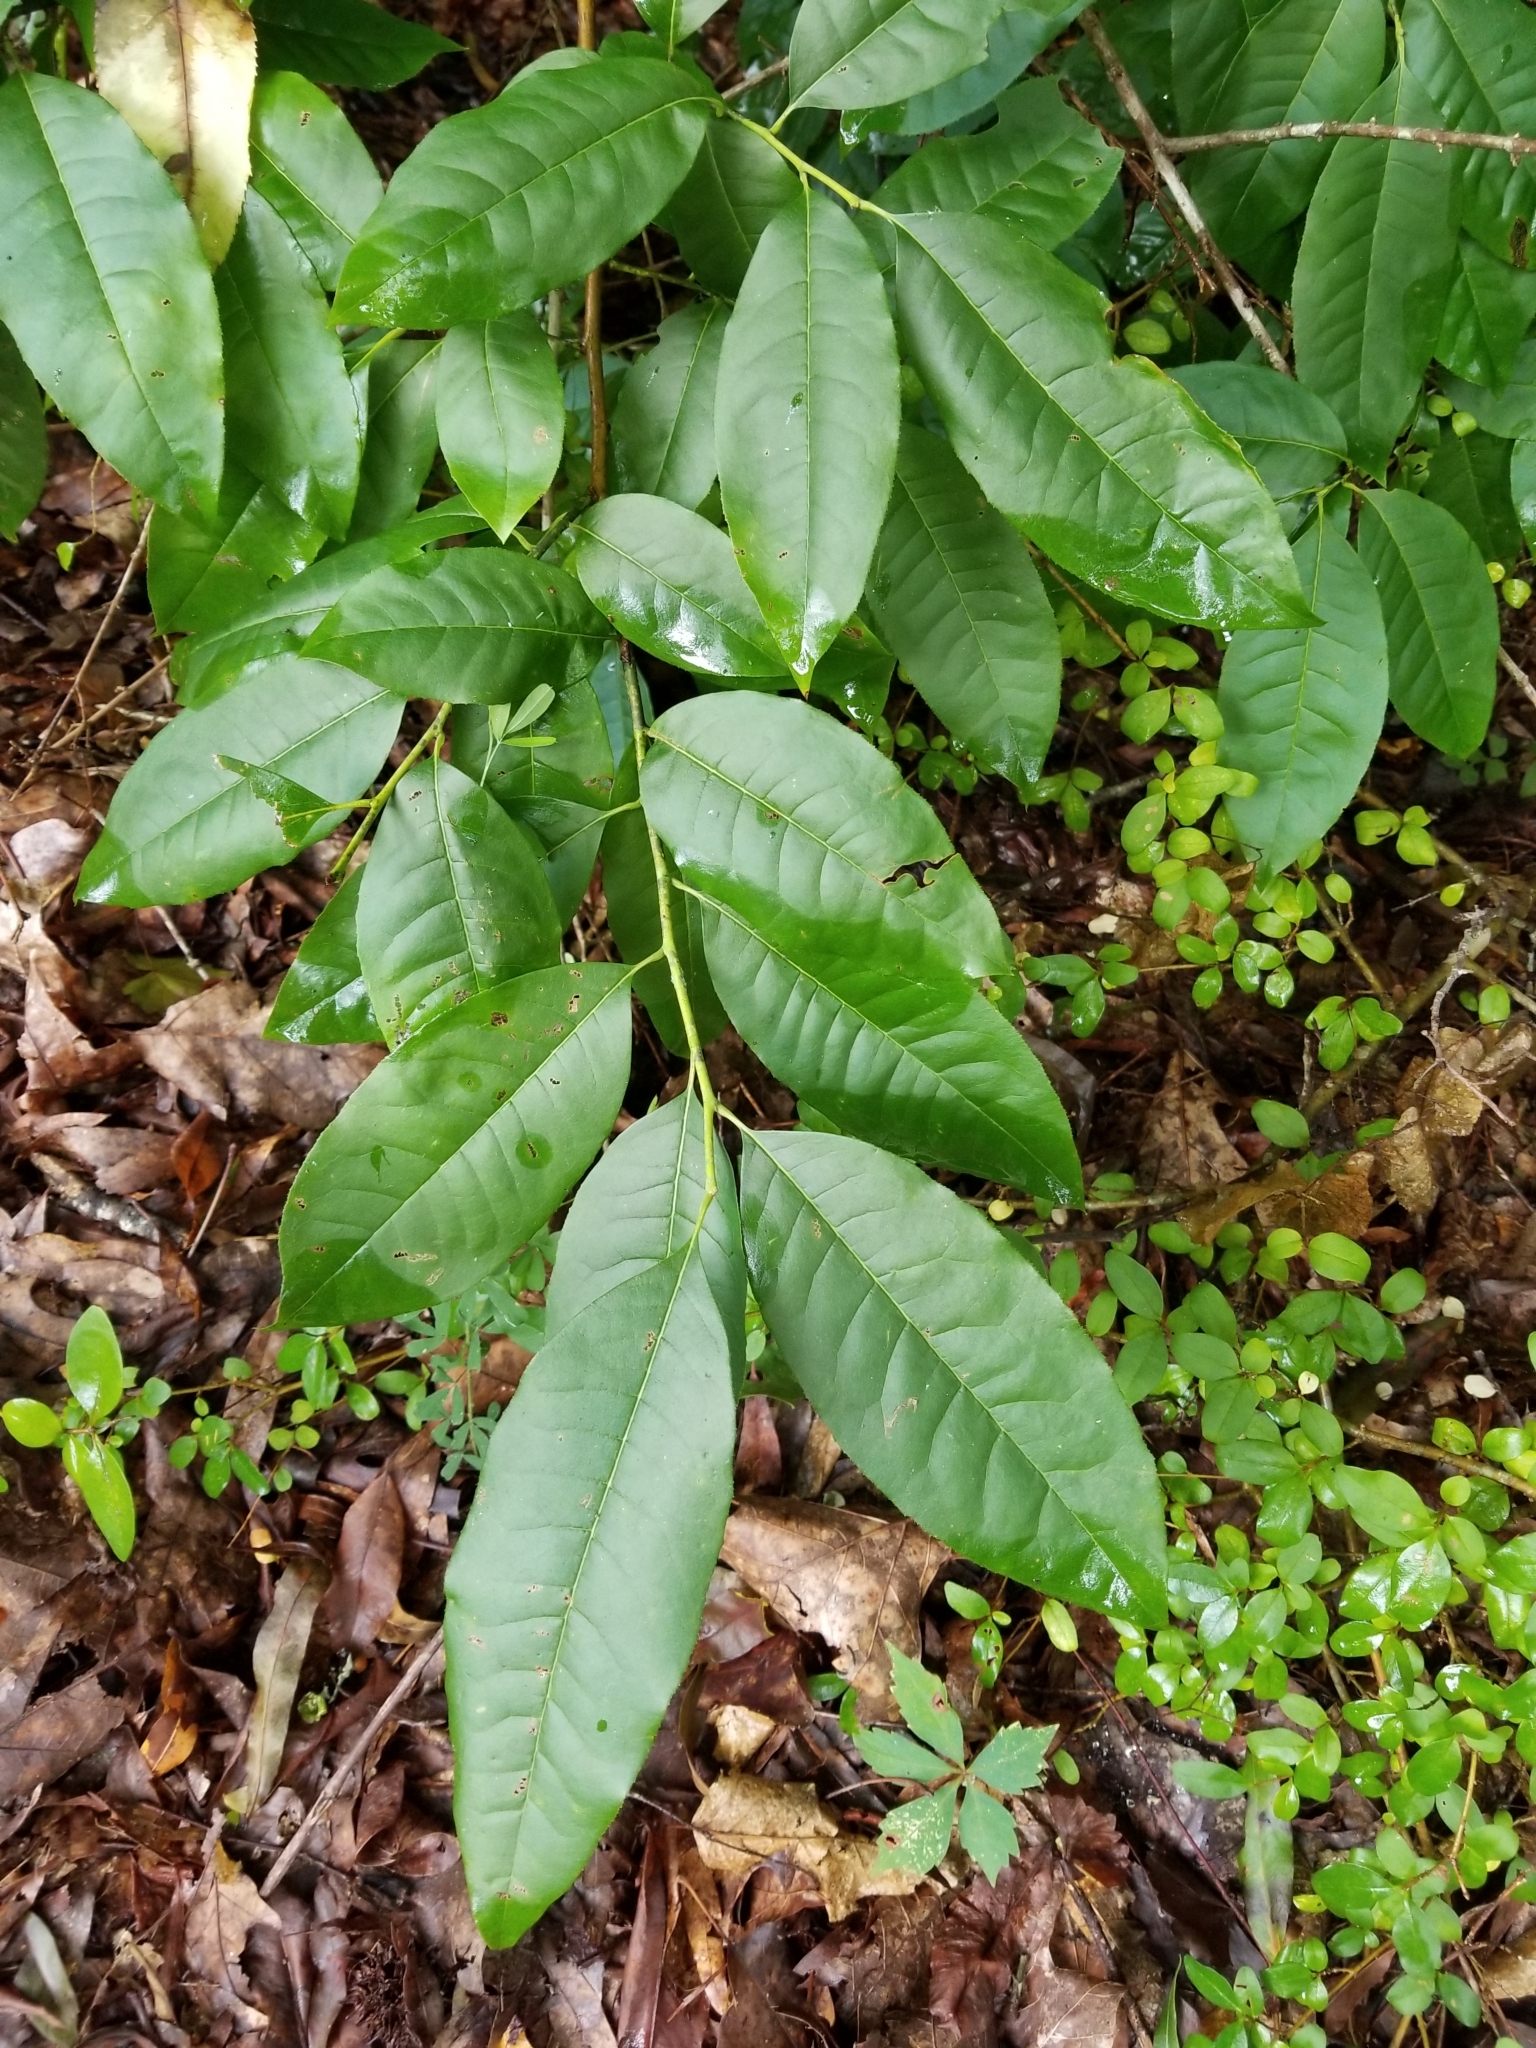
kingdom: Plantae
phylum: Tracheophyta
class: Magnoliopsida
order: Ericales
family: Ericaceae
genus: Oxydendrum
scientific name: Oxydendrum arboreum
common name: Sourwood
